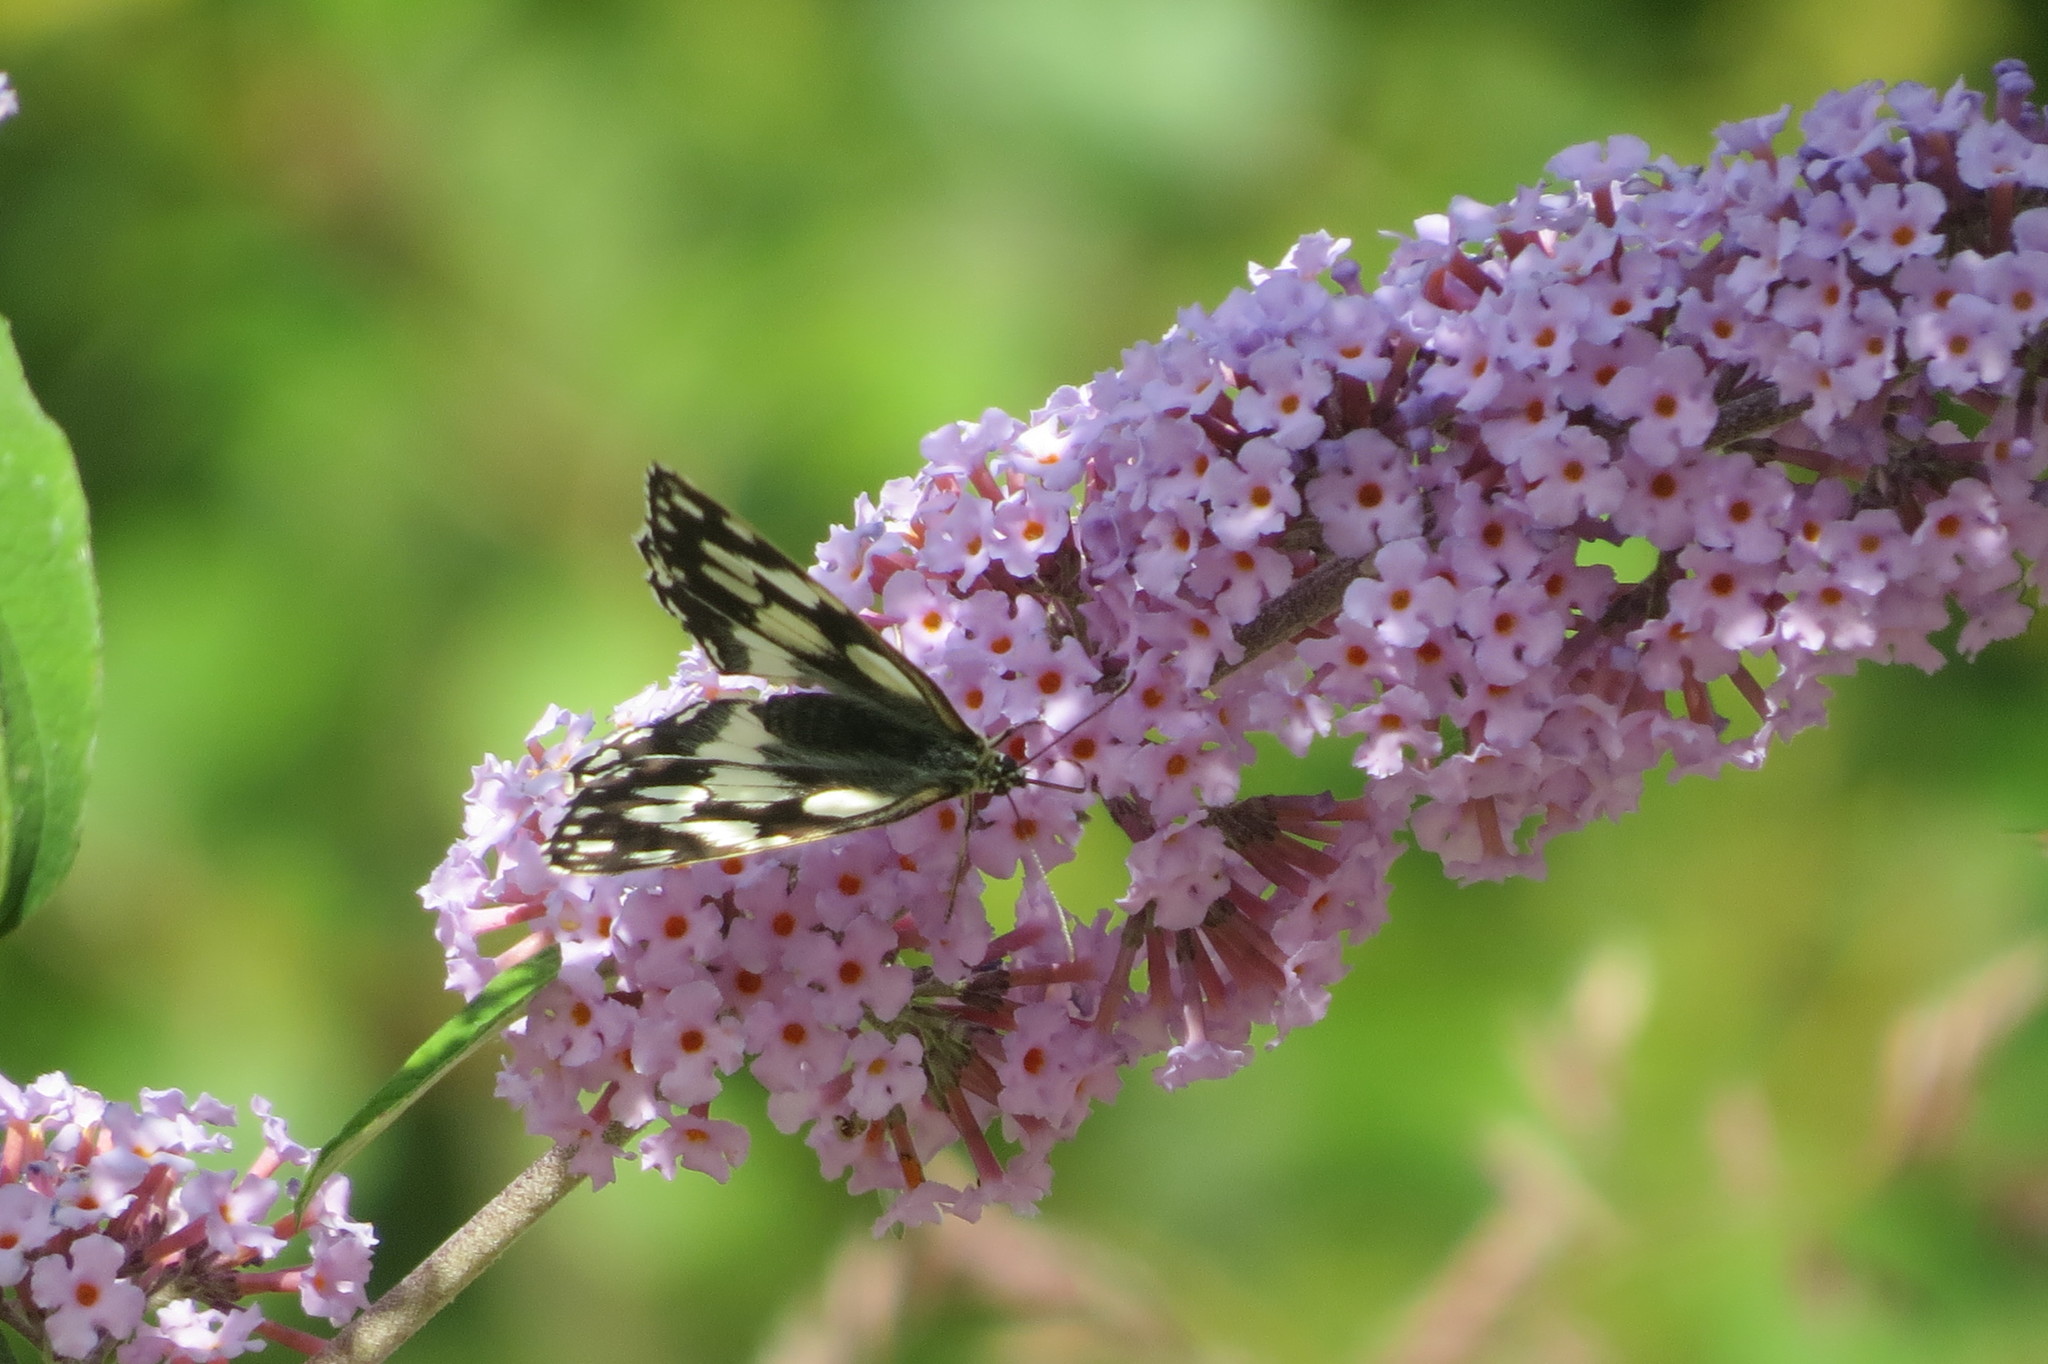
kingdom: Animalia
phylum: Arthropoda
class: Insecta
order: Lepidoptera
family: Nymphalidae
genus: Melanargia
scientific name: Melanargia galathea
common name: Marbled white
